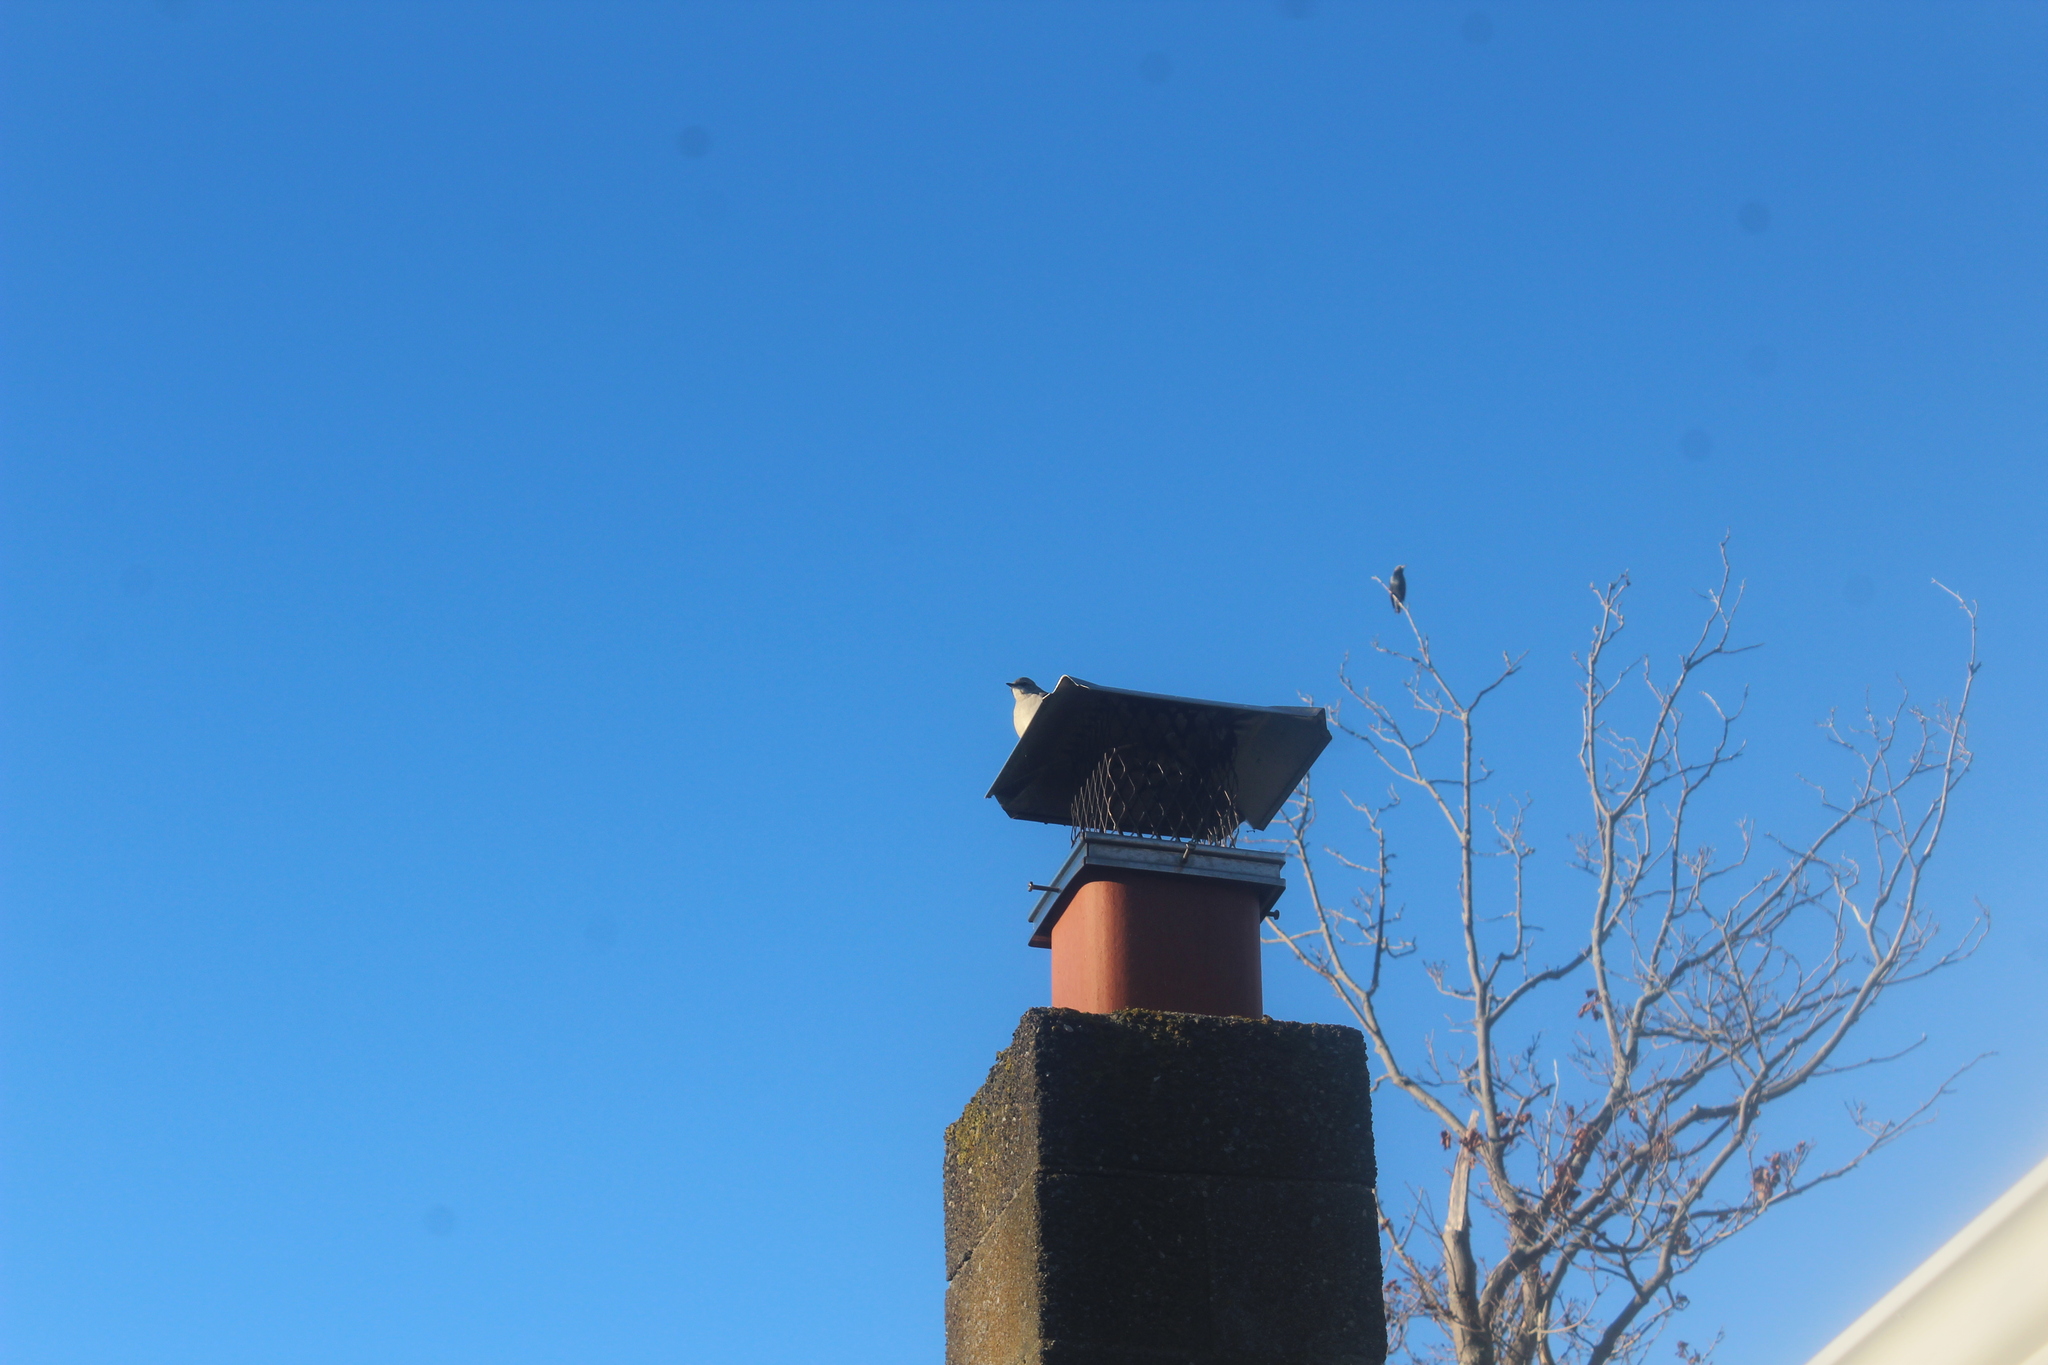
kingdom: Animalia
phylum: Chordata
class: Aves
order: Passeriformes
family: Mimidae
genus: Mimus
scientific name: Mimus polyglottos
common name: Northern mockingbird
